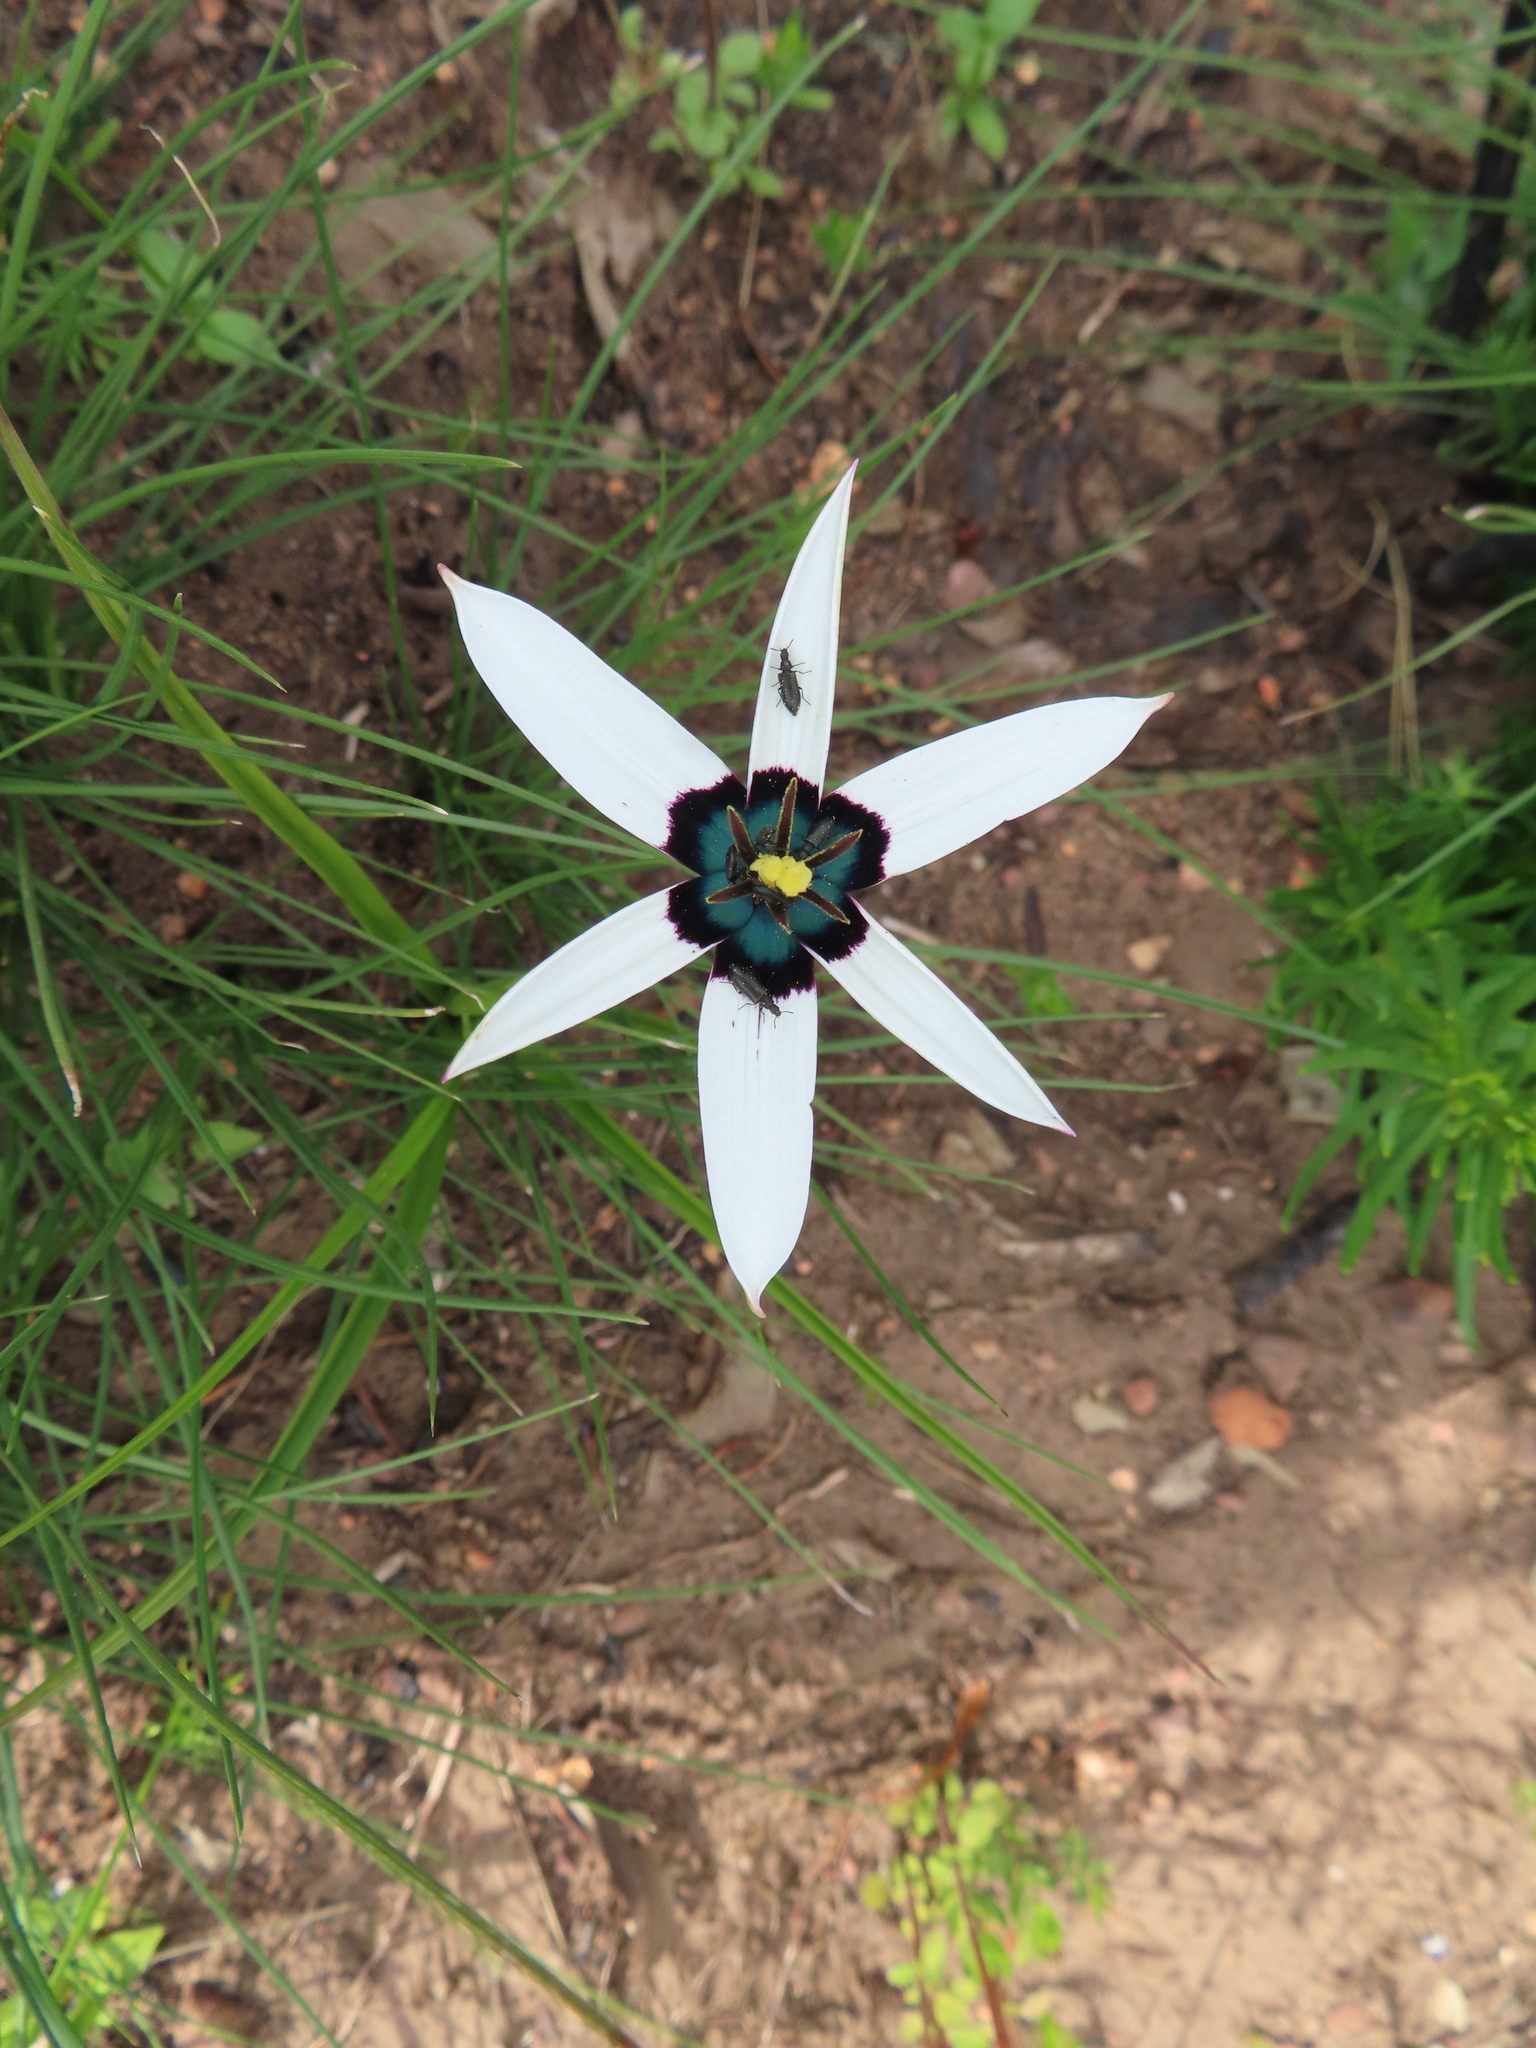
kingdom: Plantae
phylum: Tracheophyta
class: Liliopsida
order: Asparagales
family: Hypoxidaceae
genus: Pauridia
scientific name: Pauridia capensis
